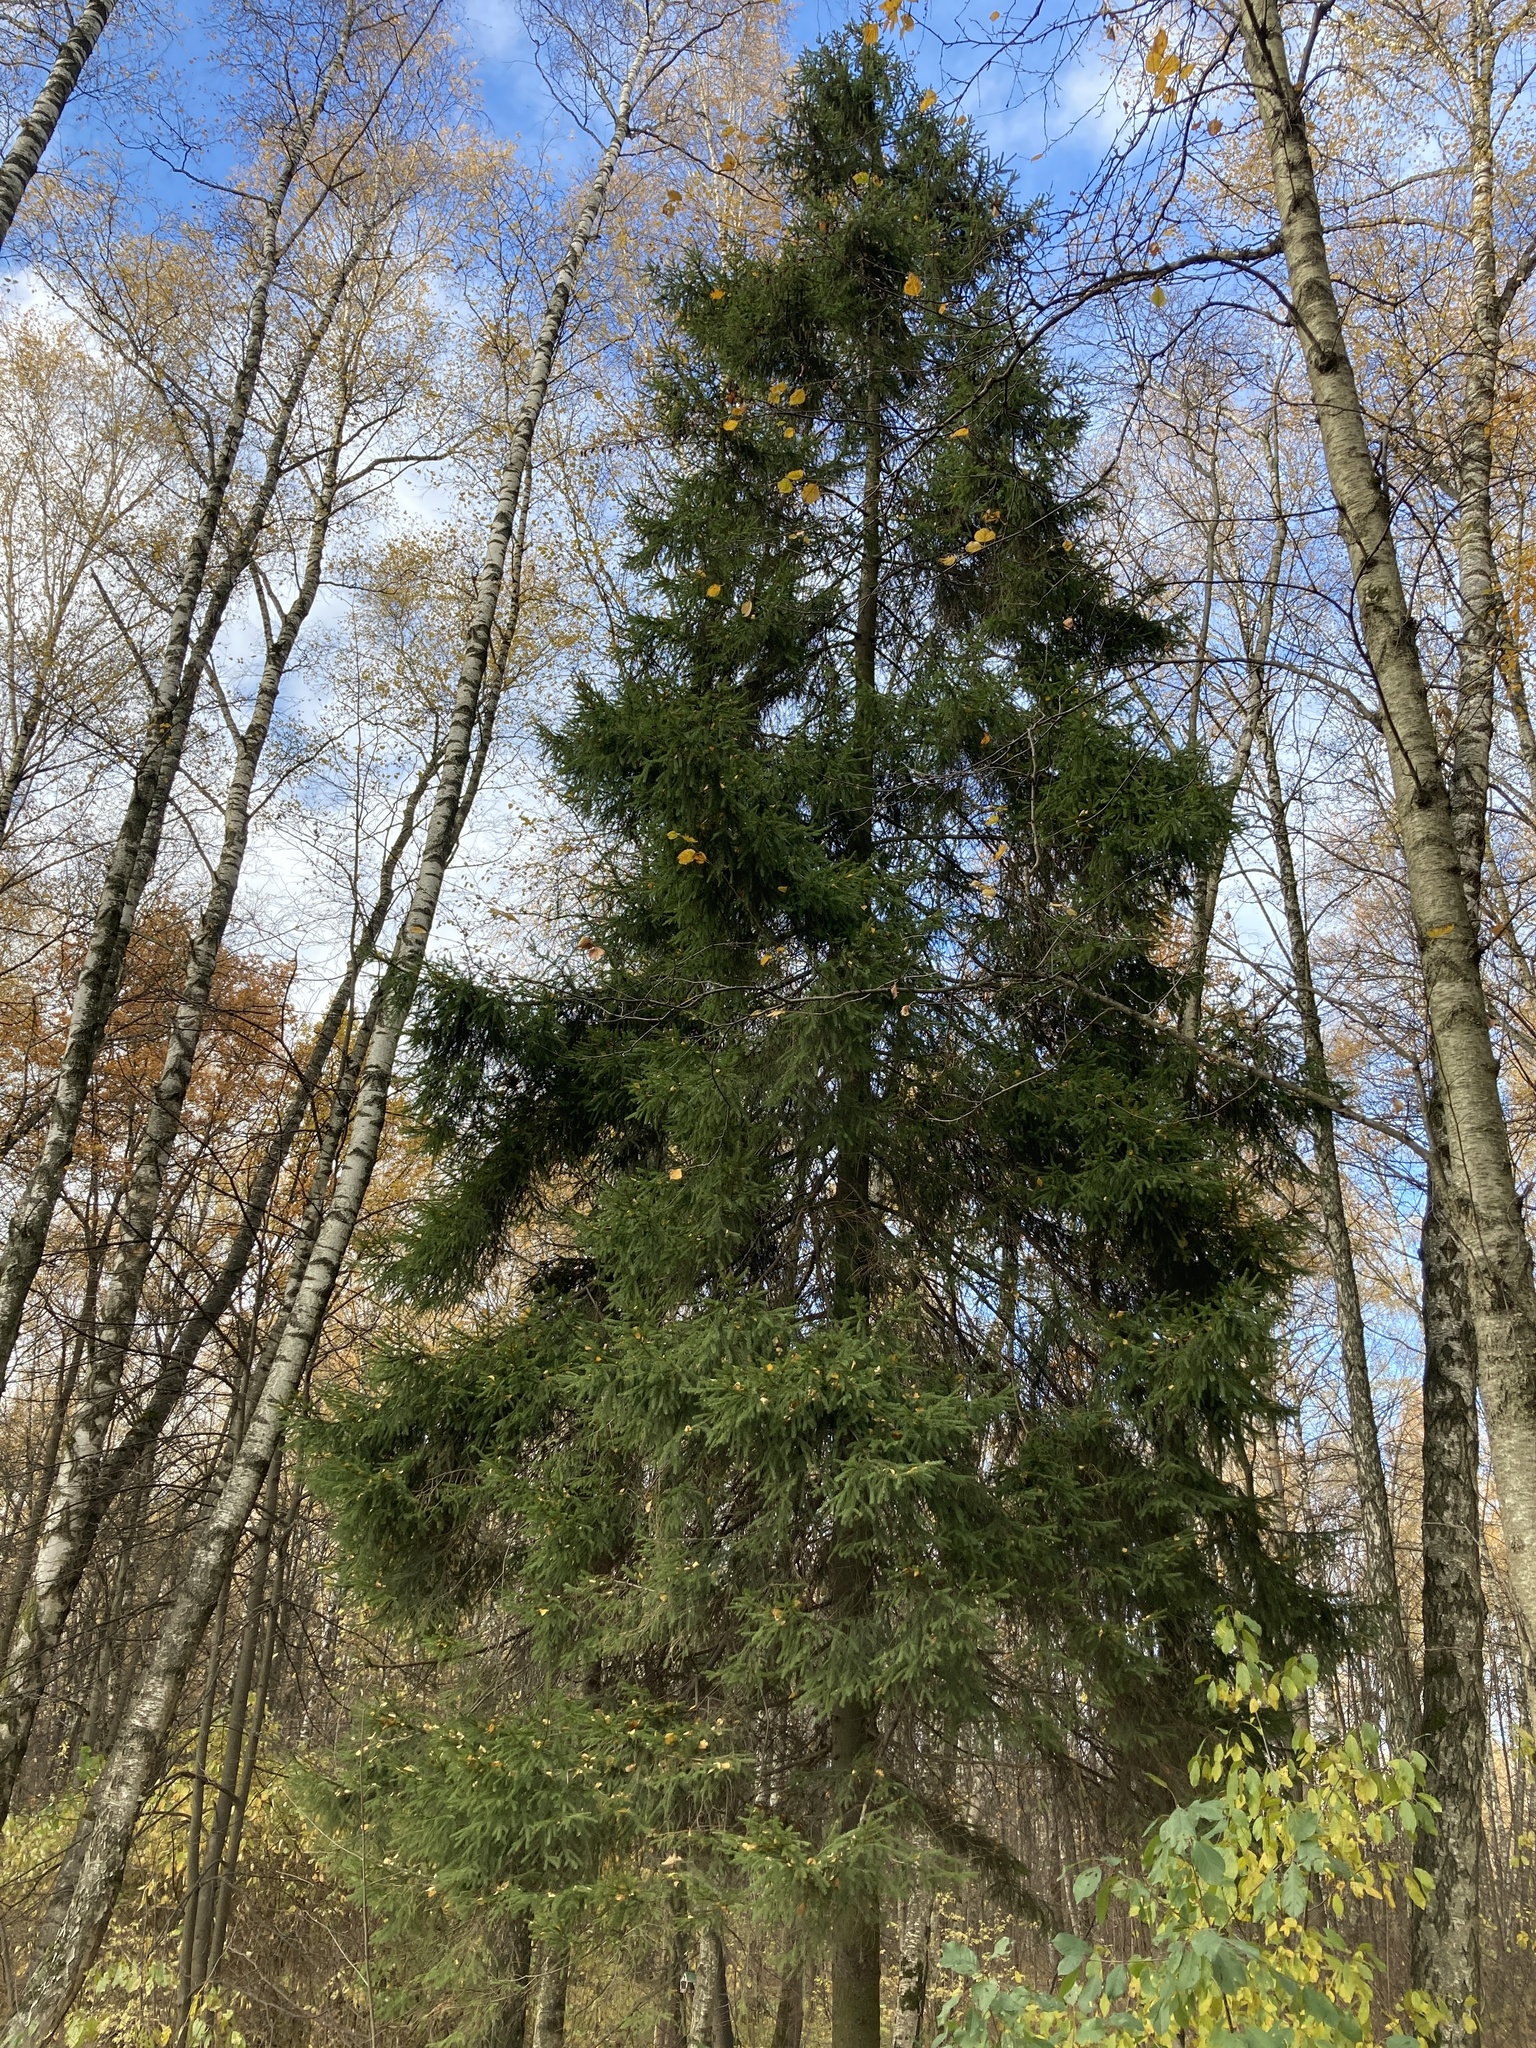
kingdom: Plantae
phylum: Tracheophyta
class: Pinopsida
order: Pinales
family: Pinaceae
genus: Picea
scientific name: Picea abies
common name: Norway spruce
